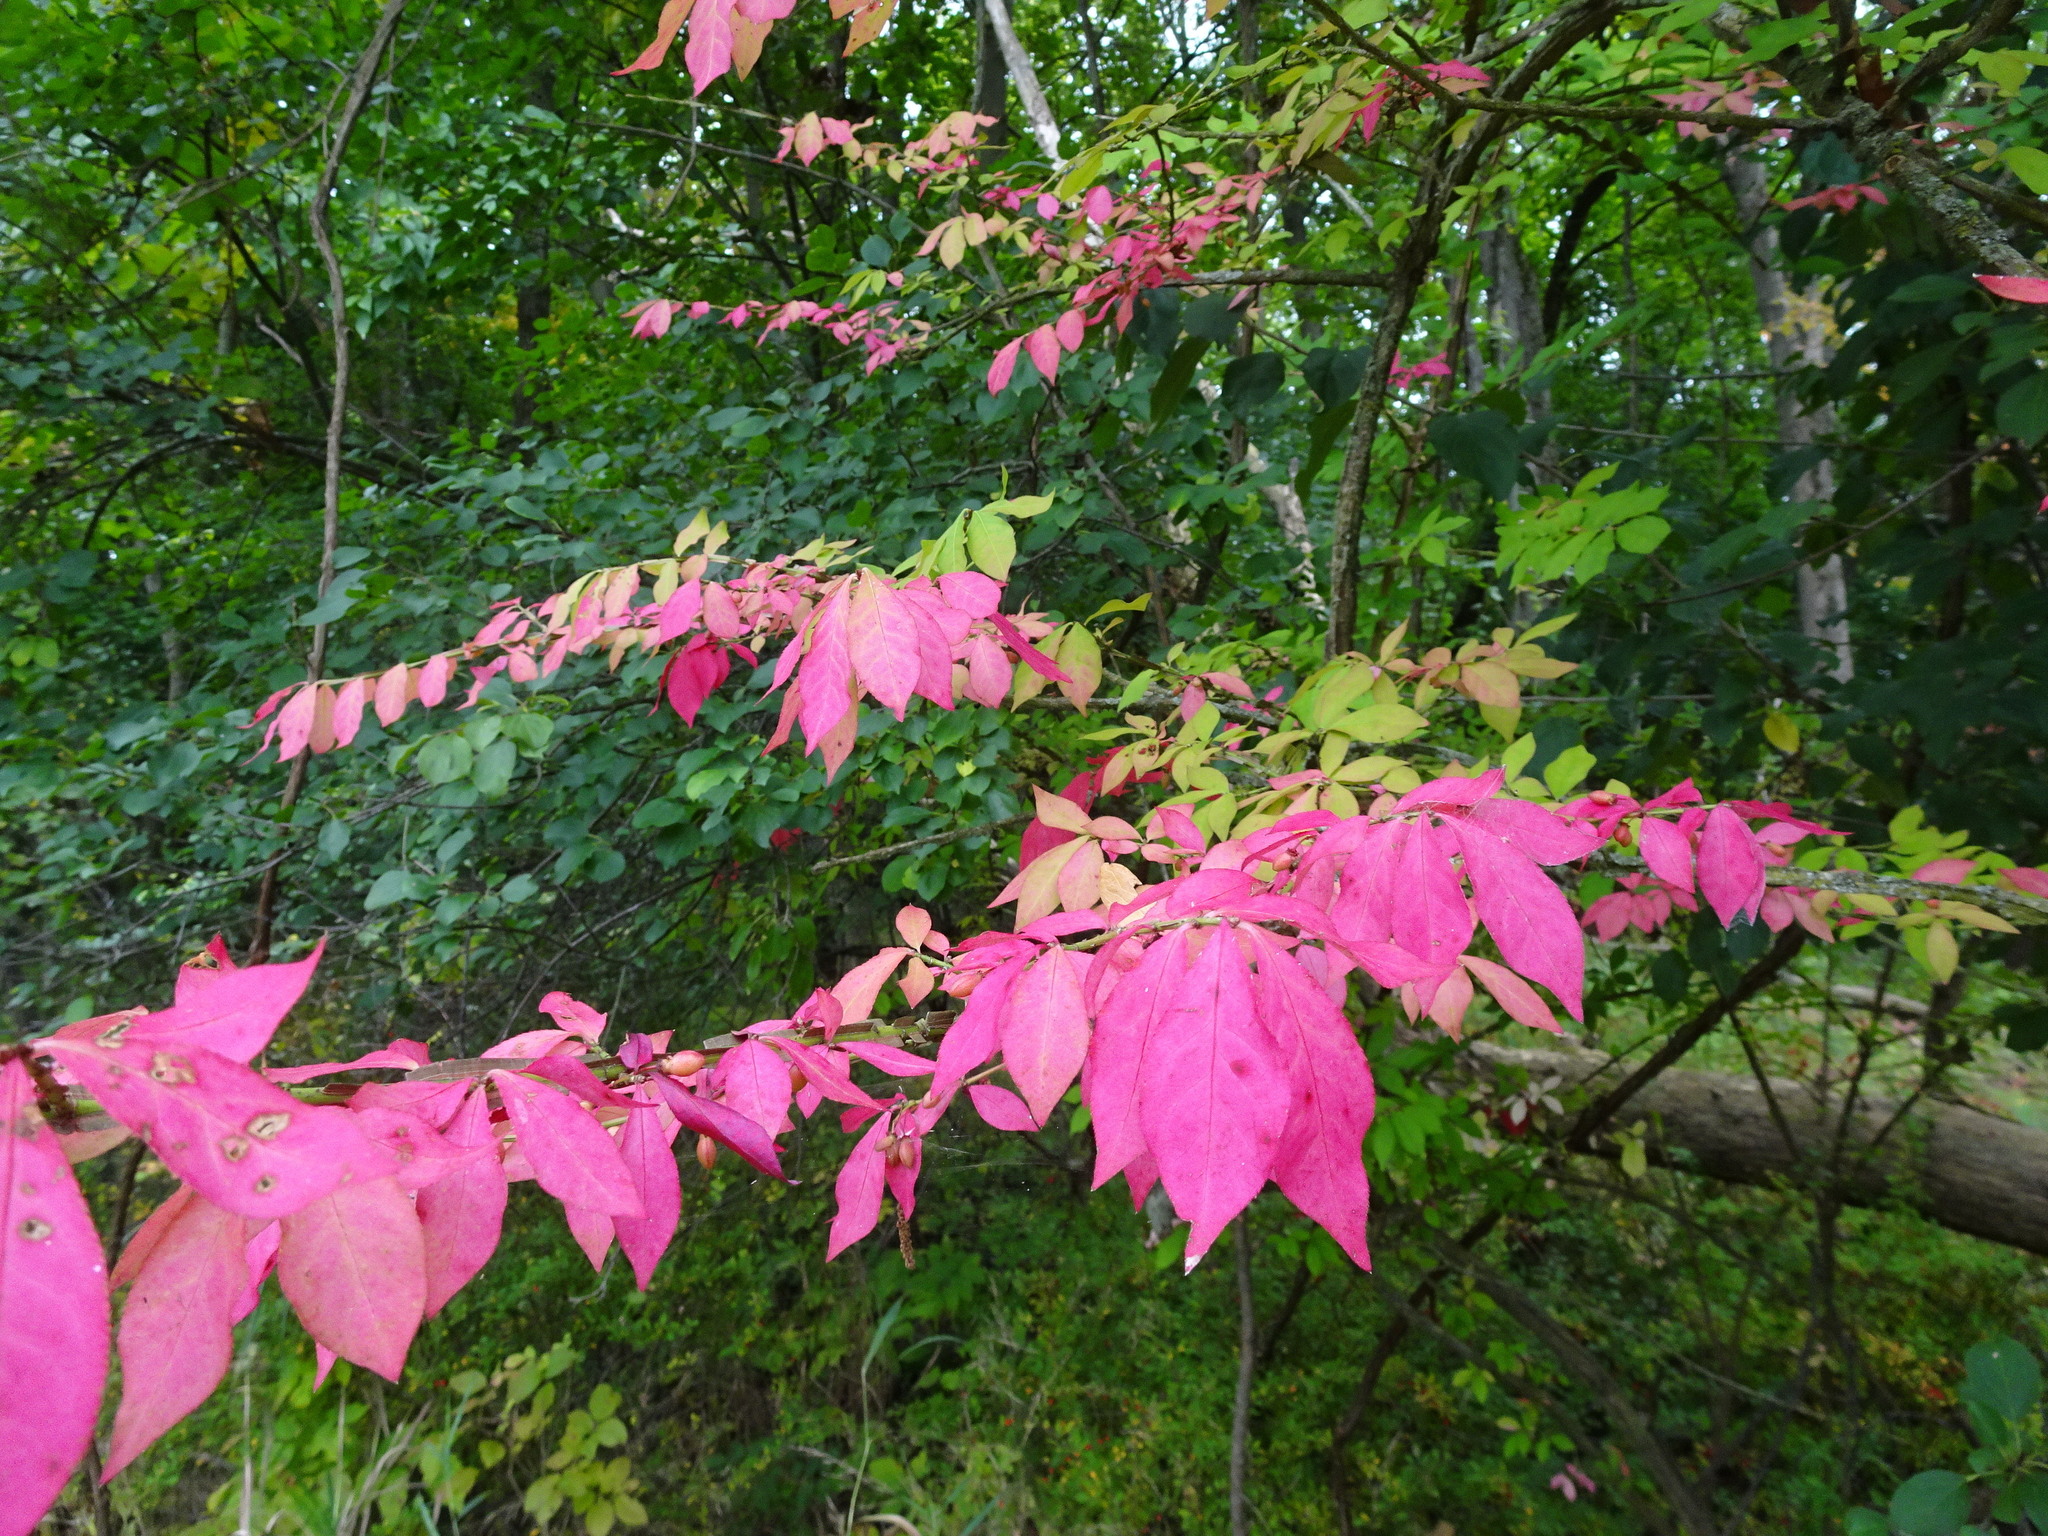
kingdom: Plantae
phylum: Tracheophyta
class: Magnoliopsida
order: Celastrales
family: Celastraceae
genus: Euonymus
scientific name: Euonymus alatus
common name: Winged euonymus
